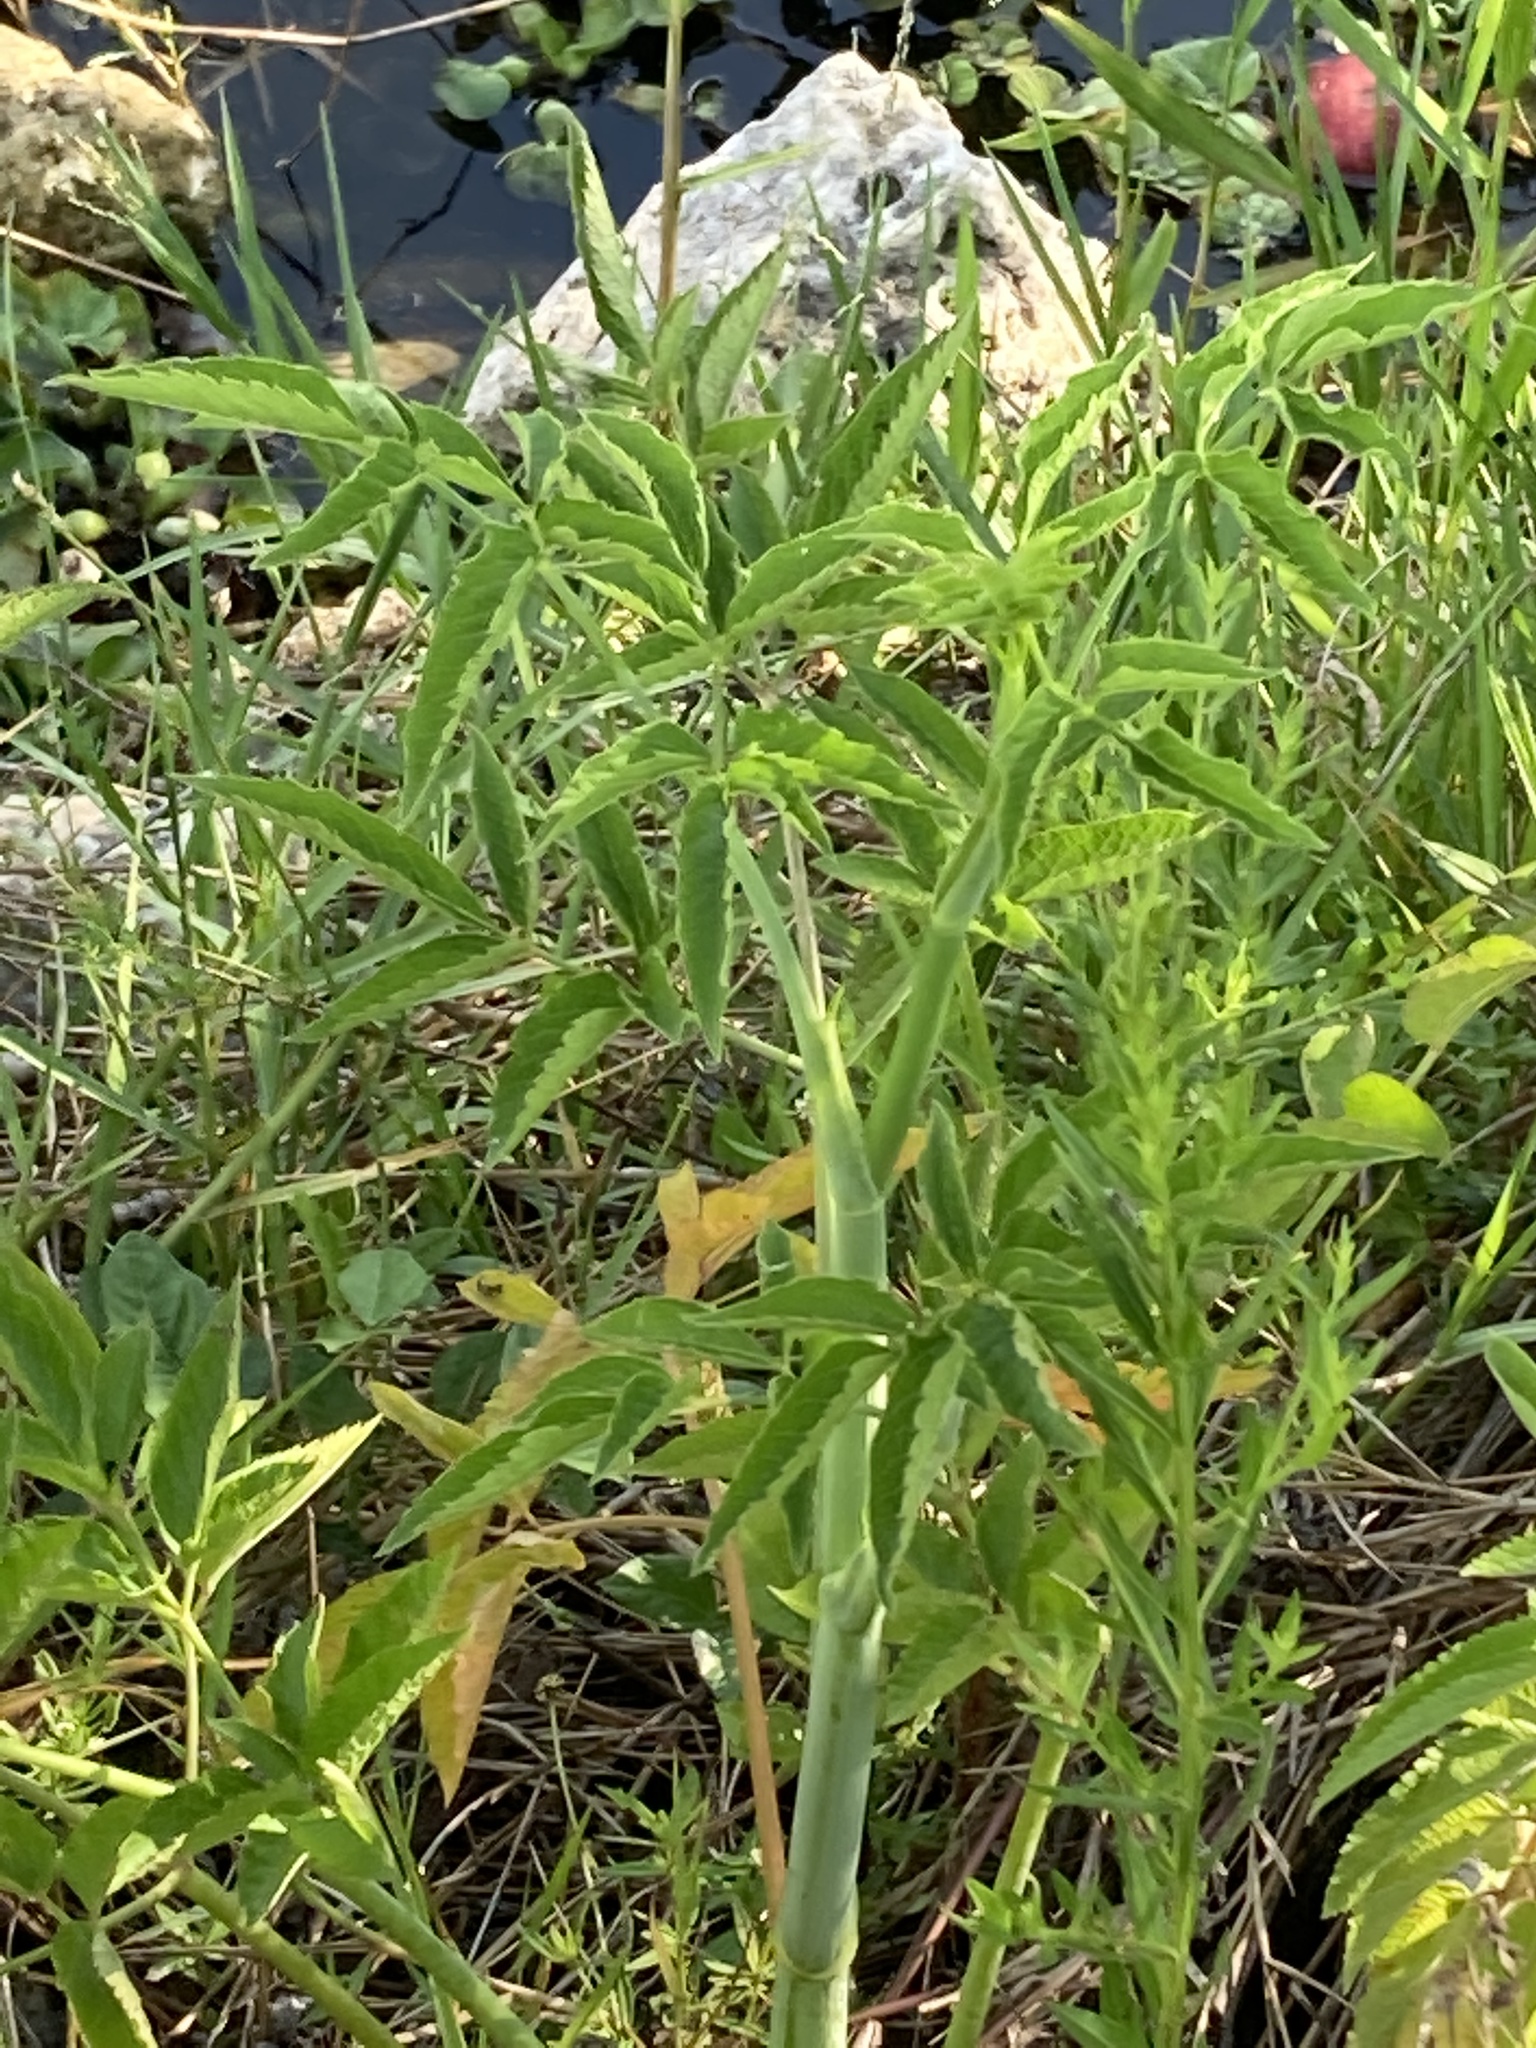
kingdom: Plantae
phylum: Tracheophyta
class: Magnoliopsida
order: Dipsacales
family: Viburnaceae
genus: Sambucus
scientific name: Sambucus canadensis
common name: American elder
